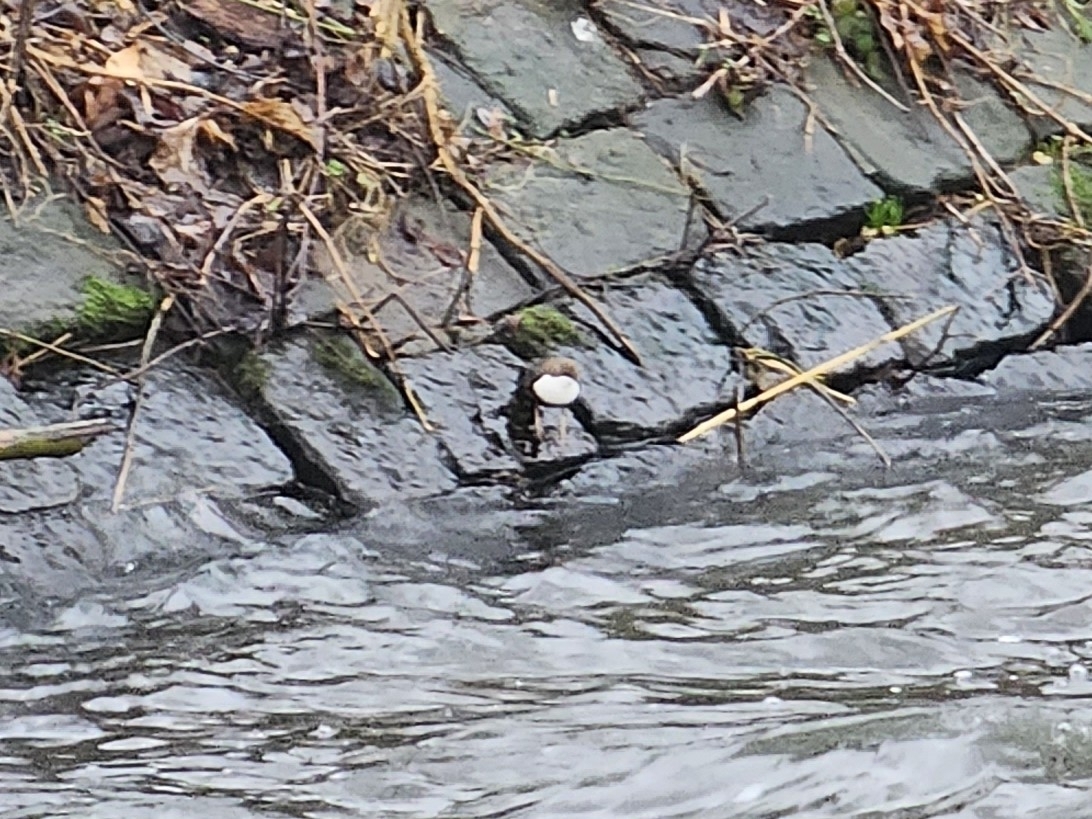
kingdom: Animalia
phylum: Chordata
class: Aves
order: Passeriformes
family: Cinclidae
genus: Cinclus
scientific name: Cinclus cinclus
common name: White-throated dipper
